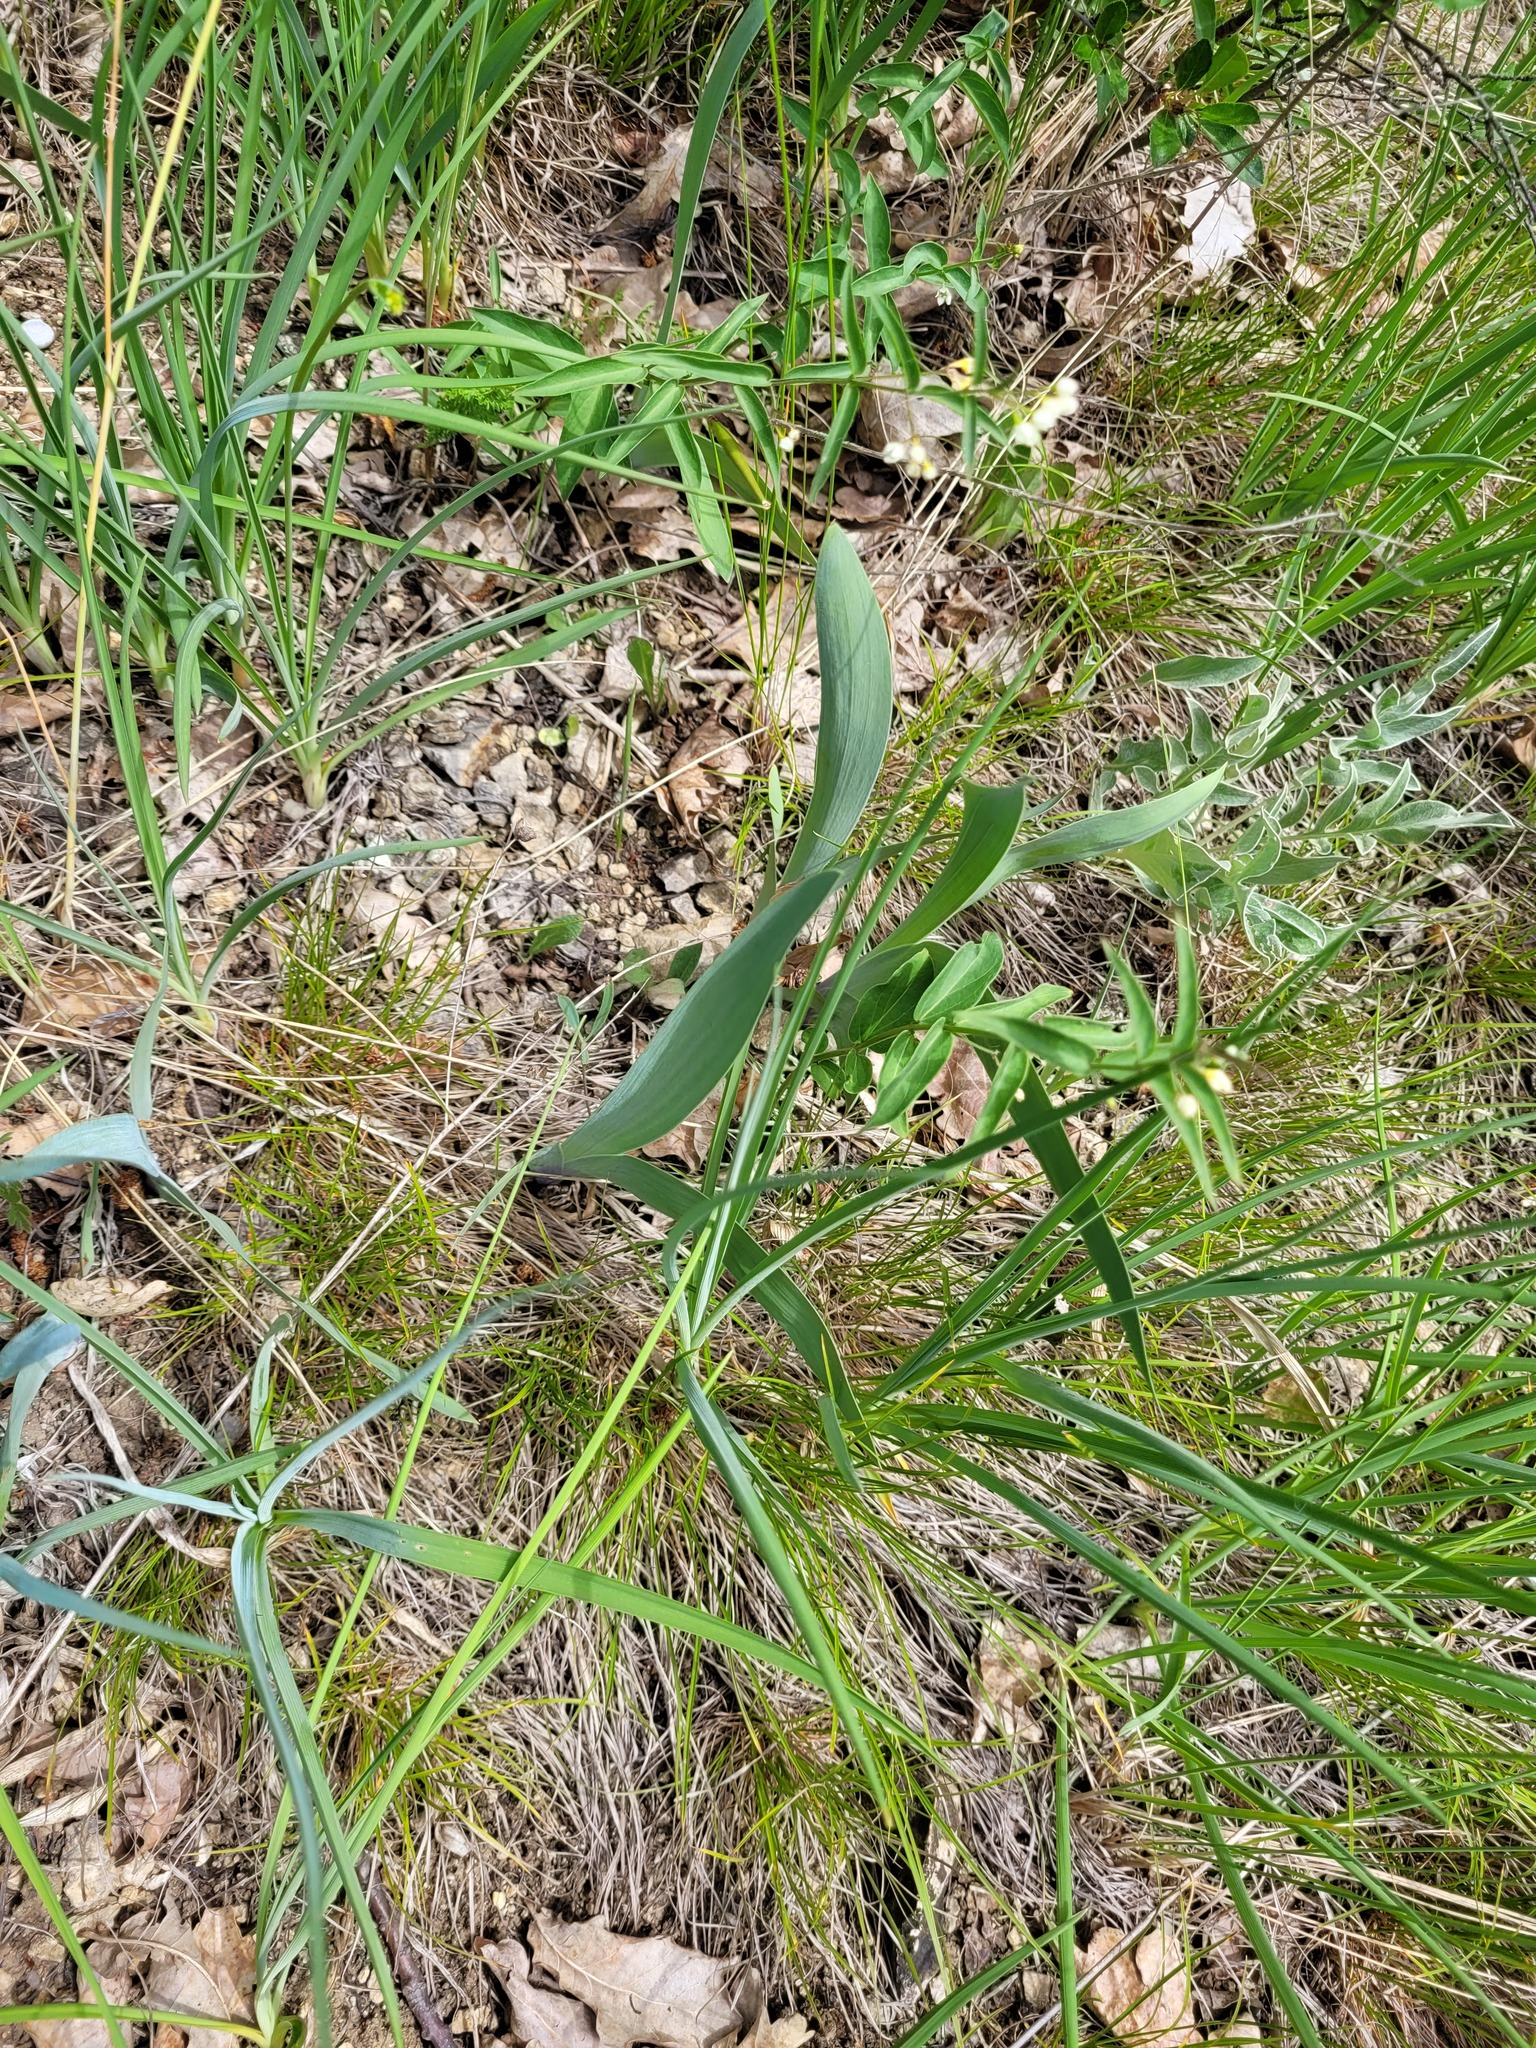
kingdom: Plantae
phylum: Tracheophyta
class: Liliopsida
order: Asparagales
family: Iridaceae
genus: Iris
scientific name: Iris aphylla
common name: Stool iris
